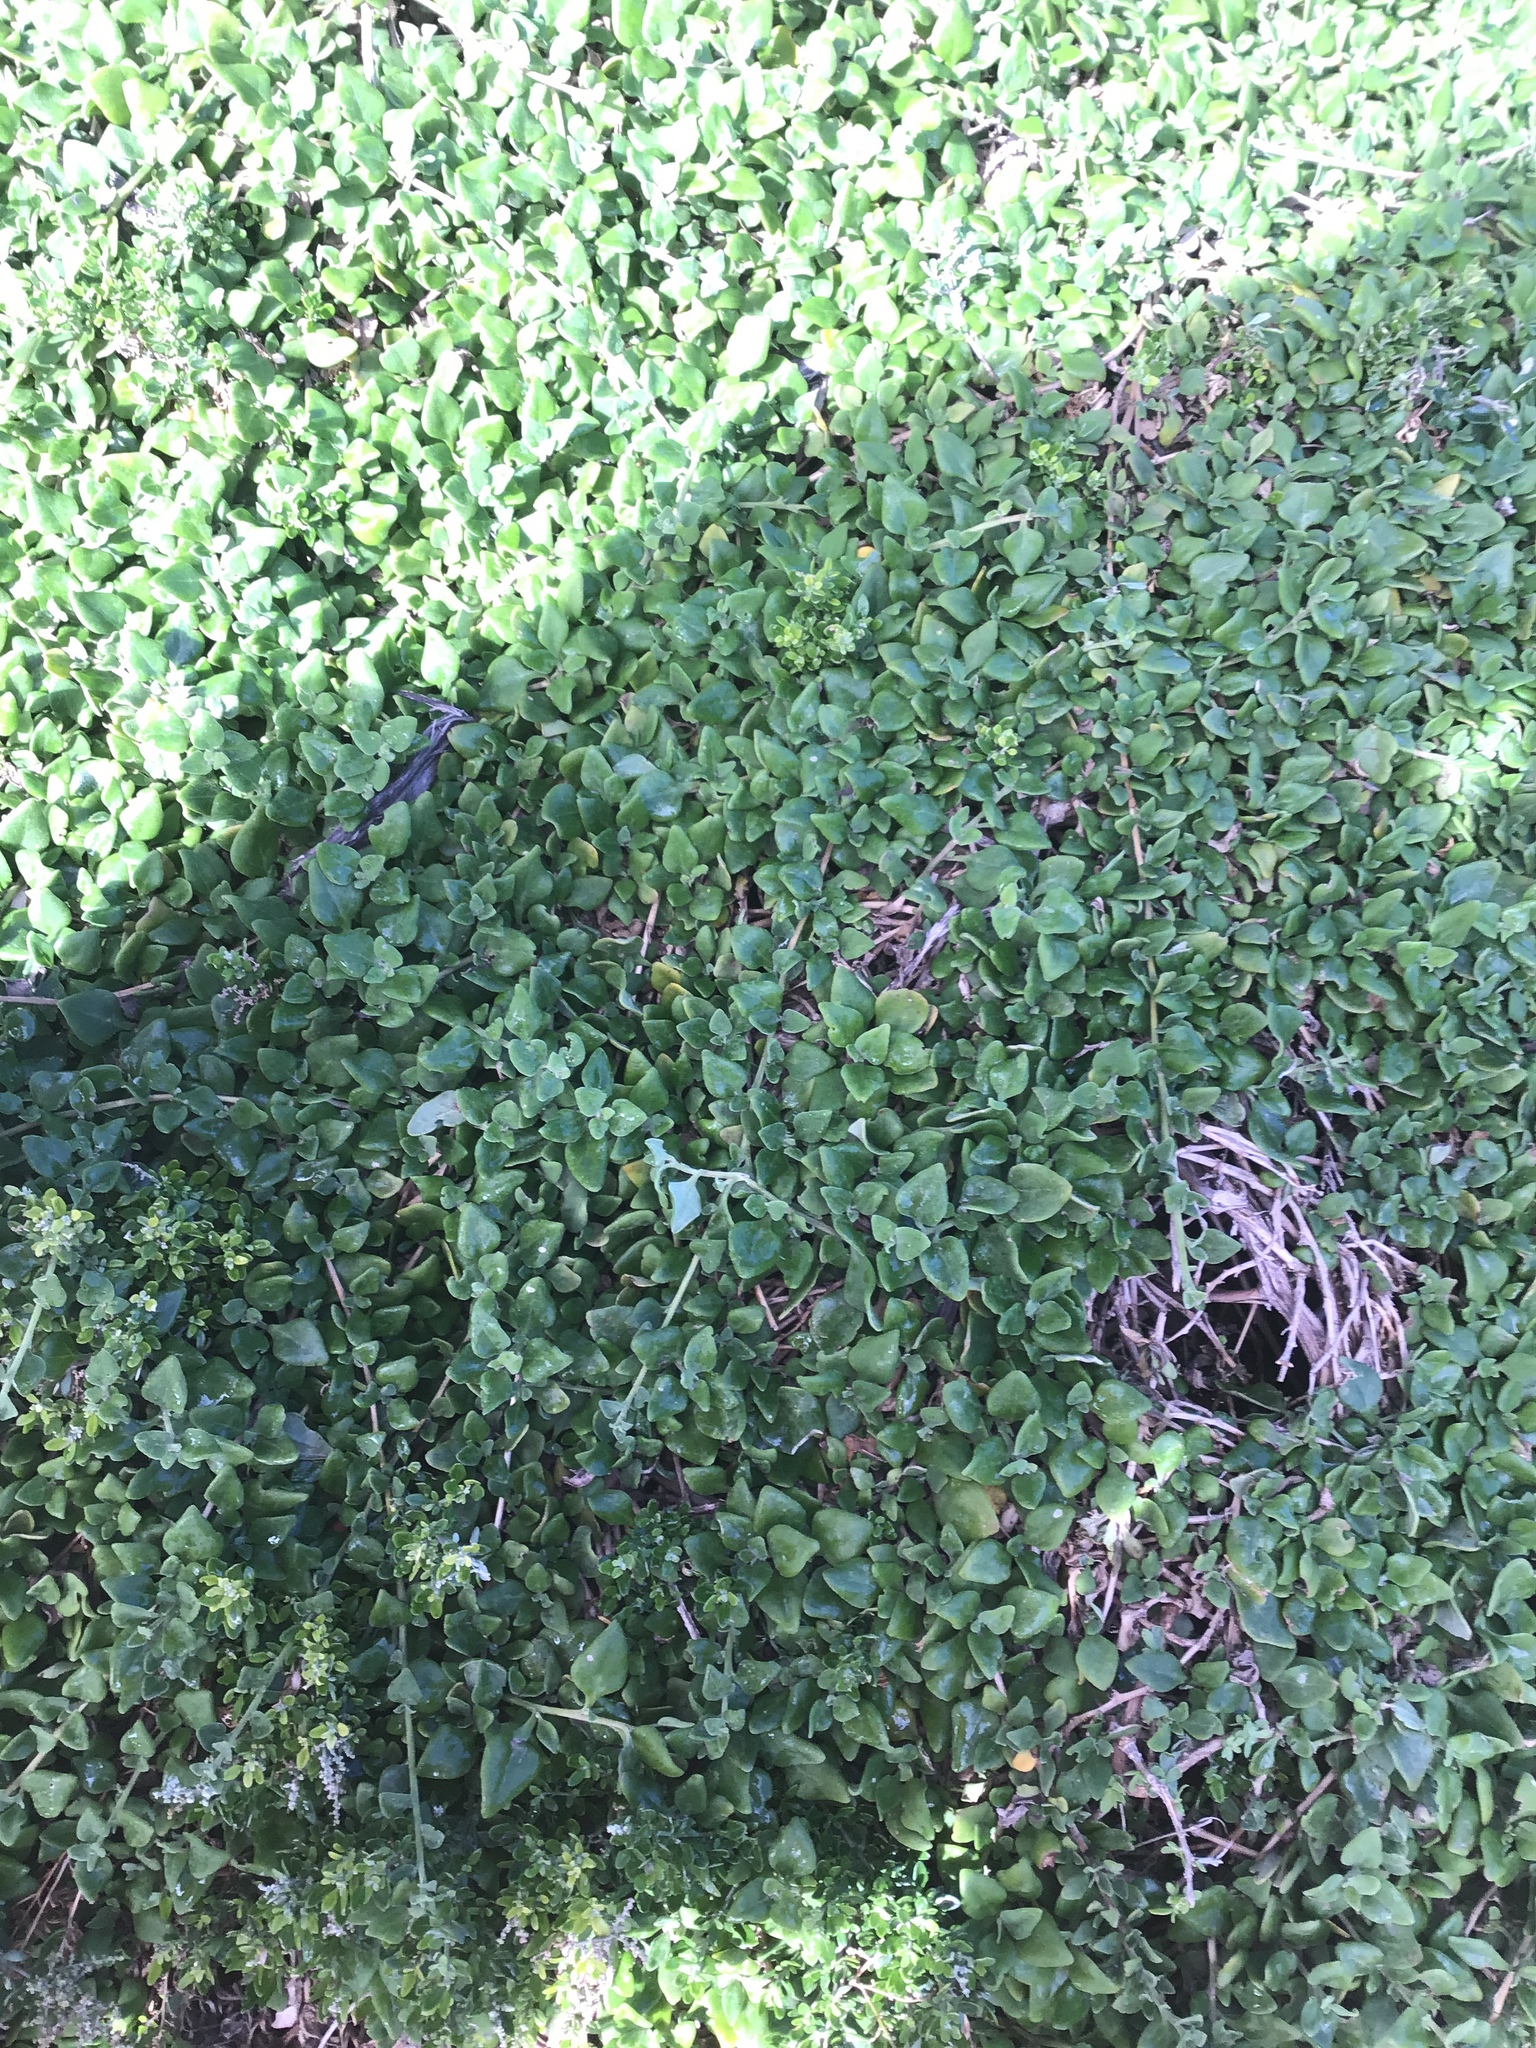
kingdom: Plantae
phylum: Tracheophyta
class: Magnoliopsida
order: Caryophyllales
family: Aizoaceae
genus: Tetragonia
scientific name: Tetragonia implexicoma
